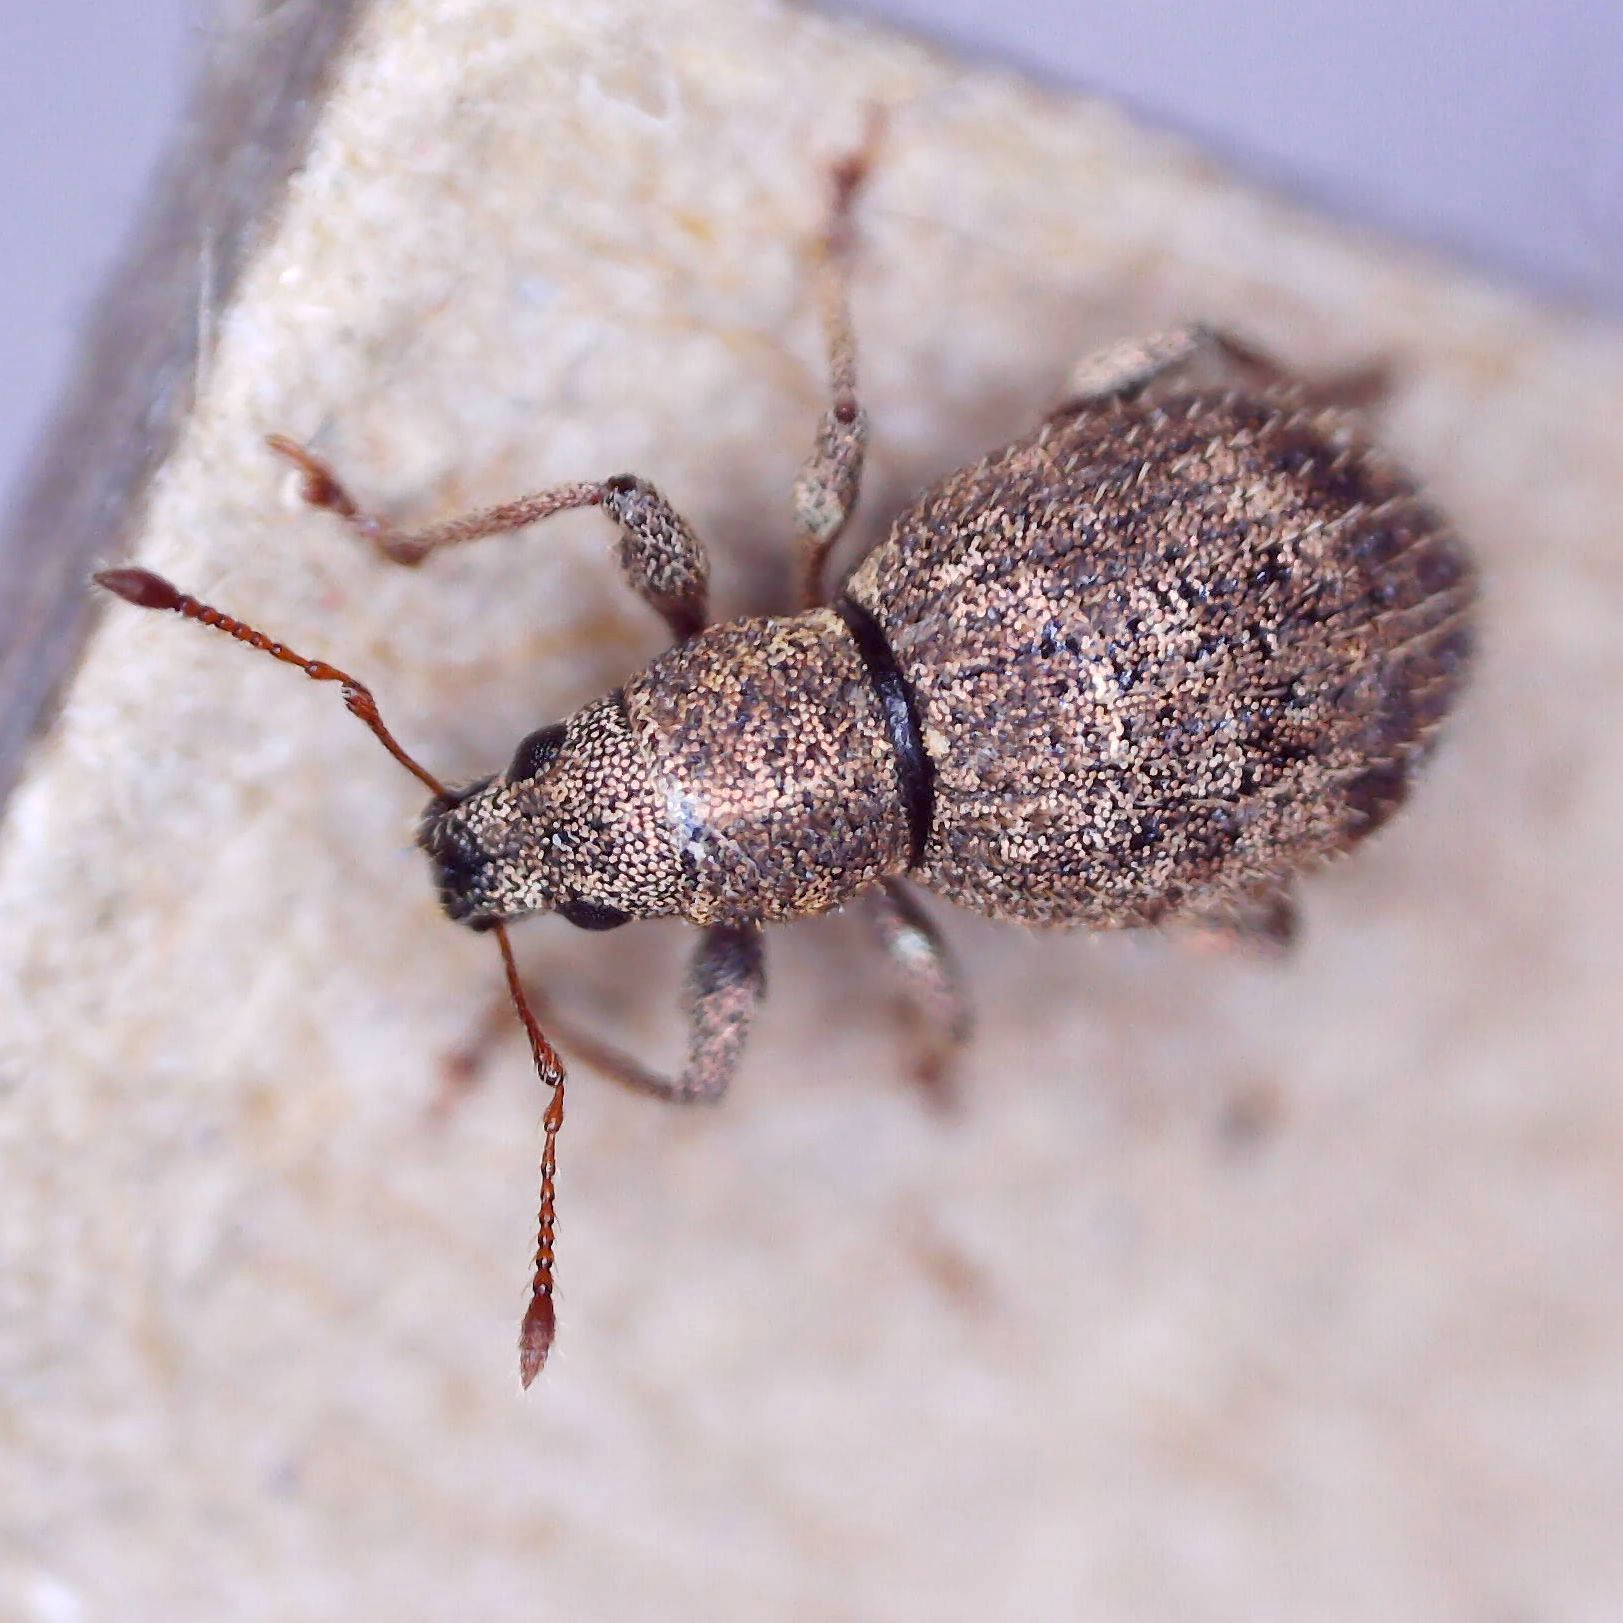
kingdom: Animalia
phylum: Arthropoda
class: Insecta
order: Coleoptera
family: Curculionidae
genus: Sciaphilus
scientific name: Sciaphilus asperatus
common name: Weevil
